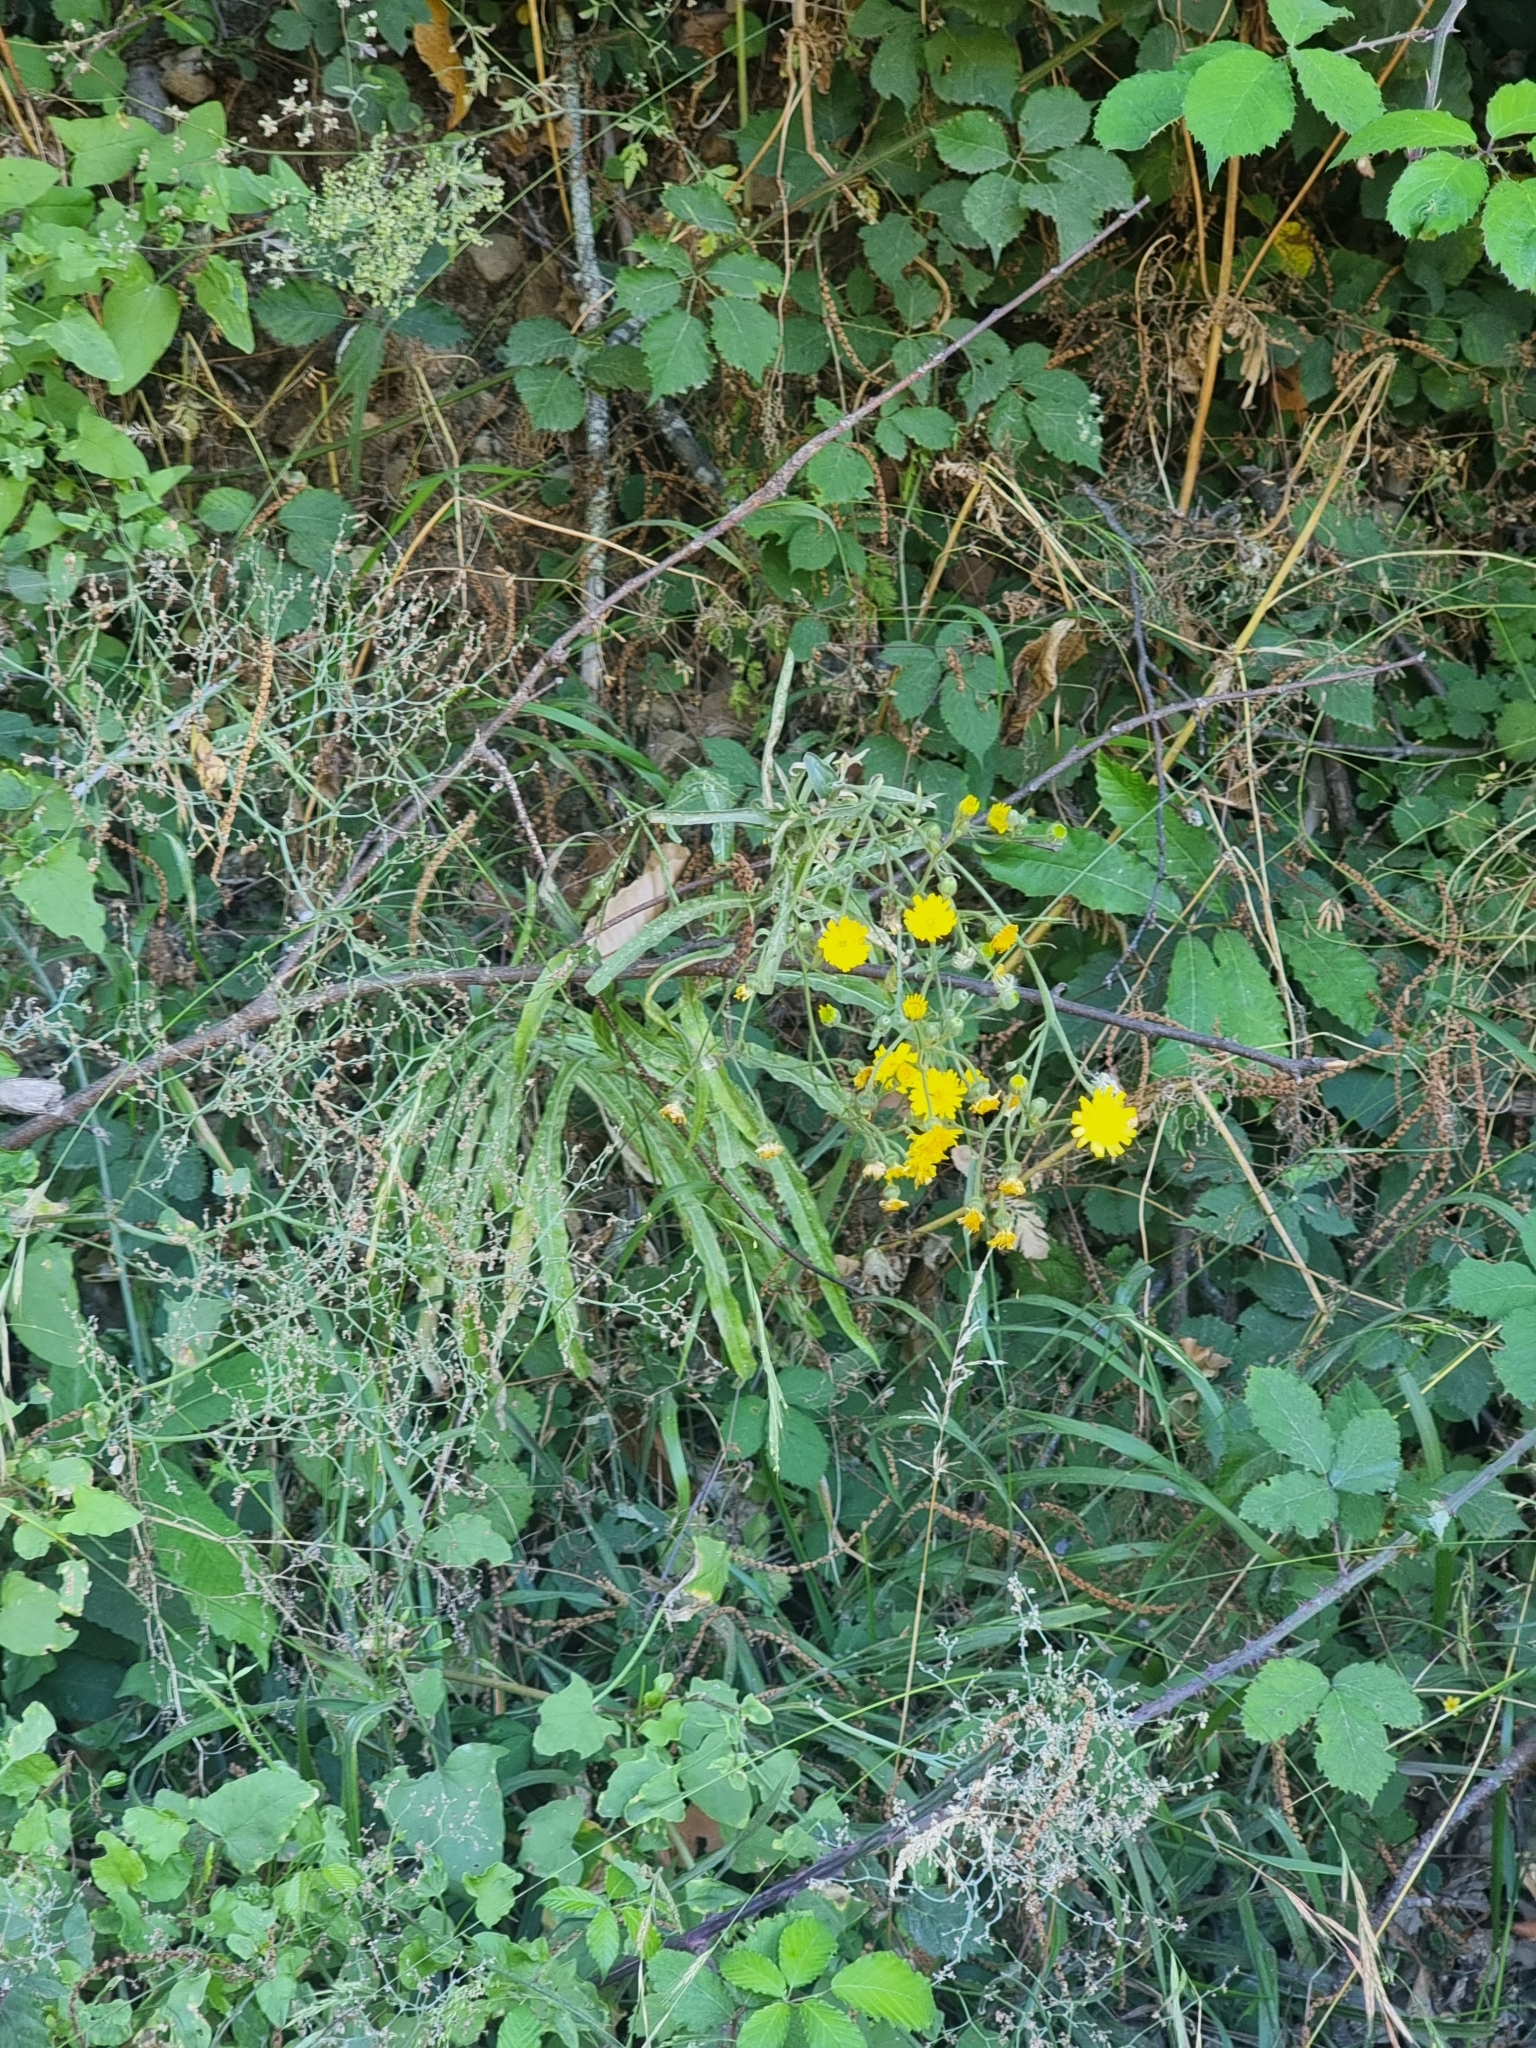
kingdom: Plantae
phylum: Tracheophyta
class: Magnoliopsida
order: Asterales
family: Asteraceae
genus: Andryala
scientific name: Andryala glandulosa
